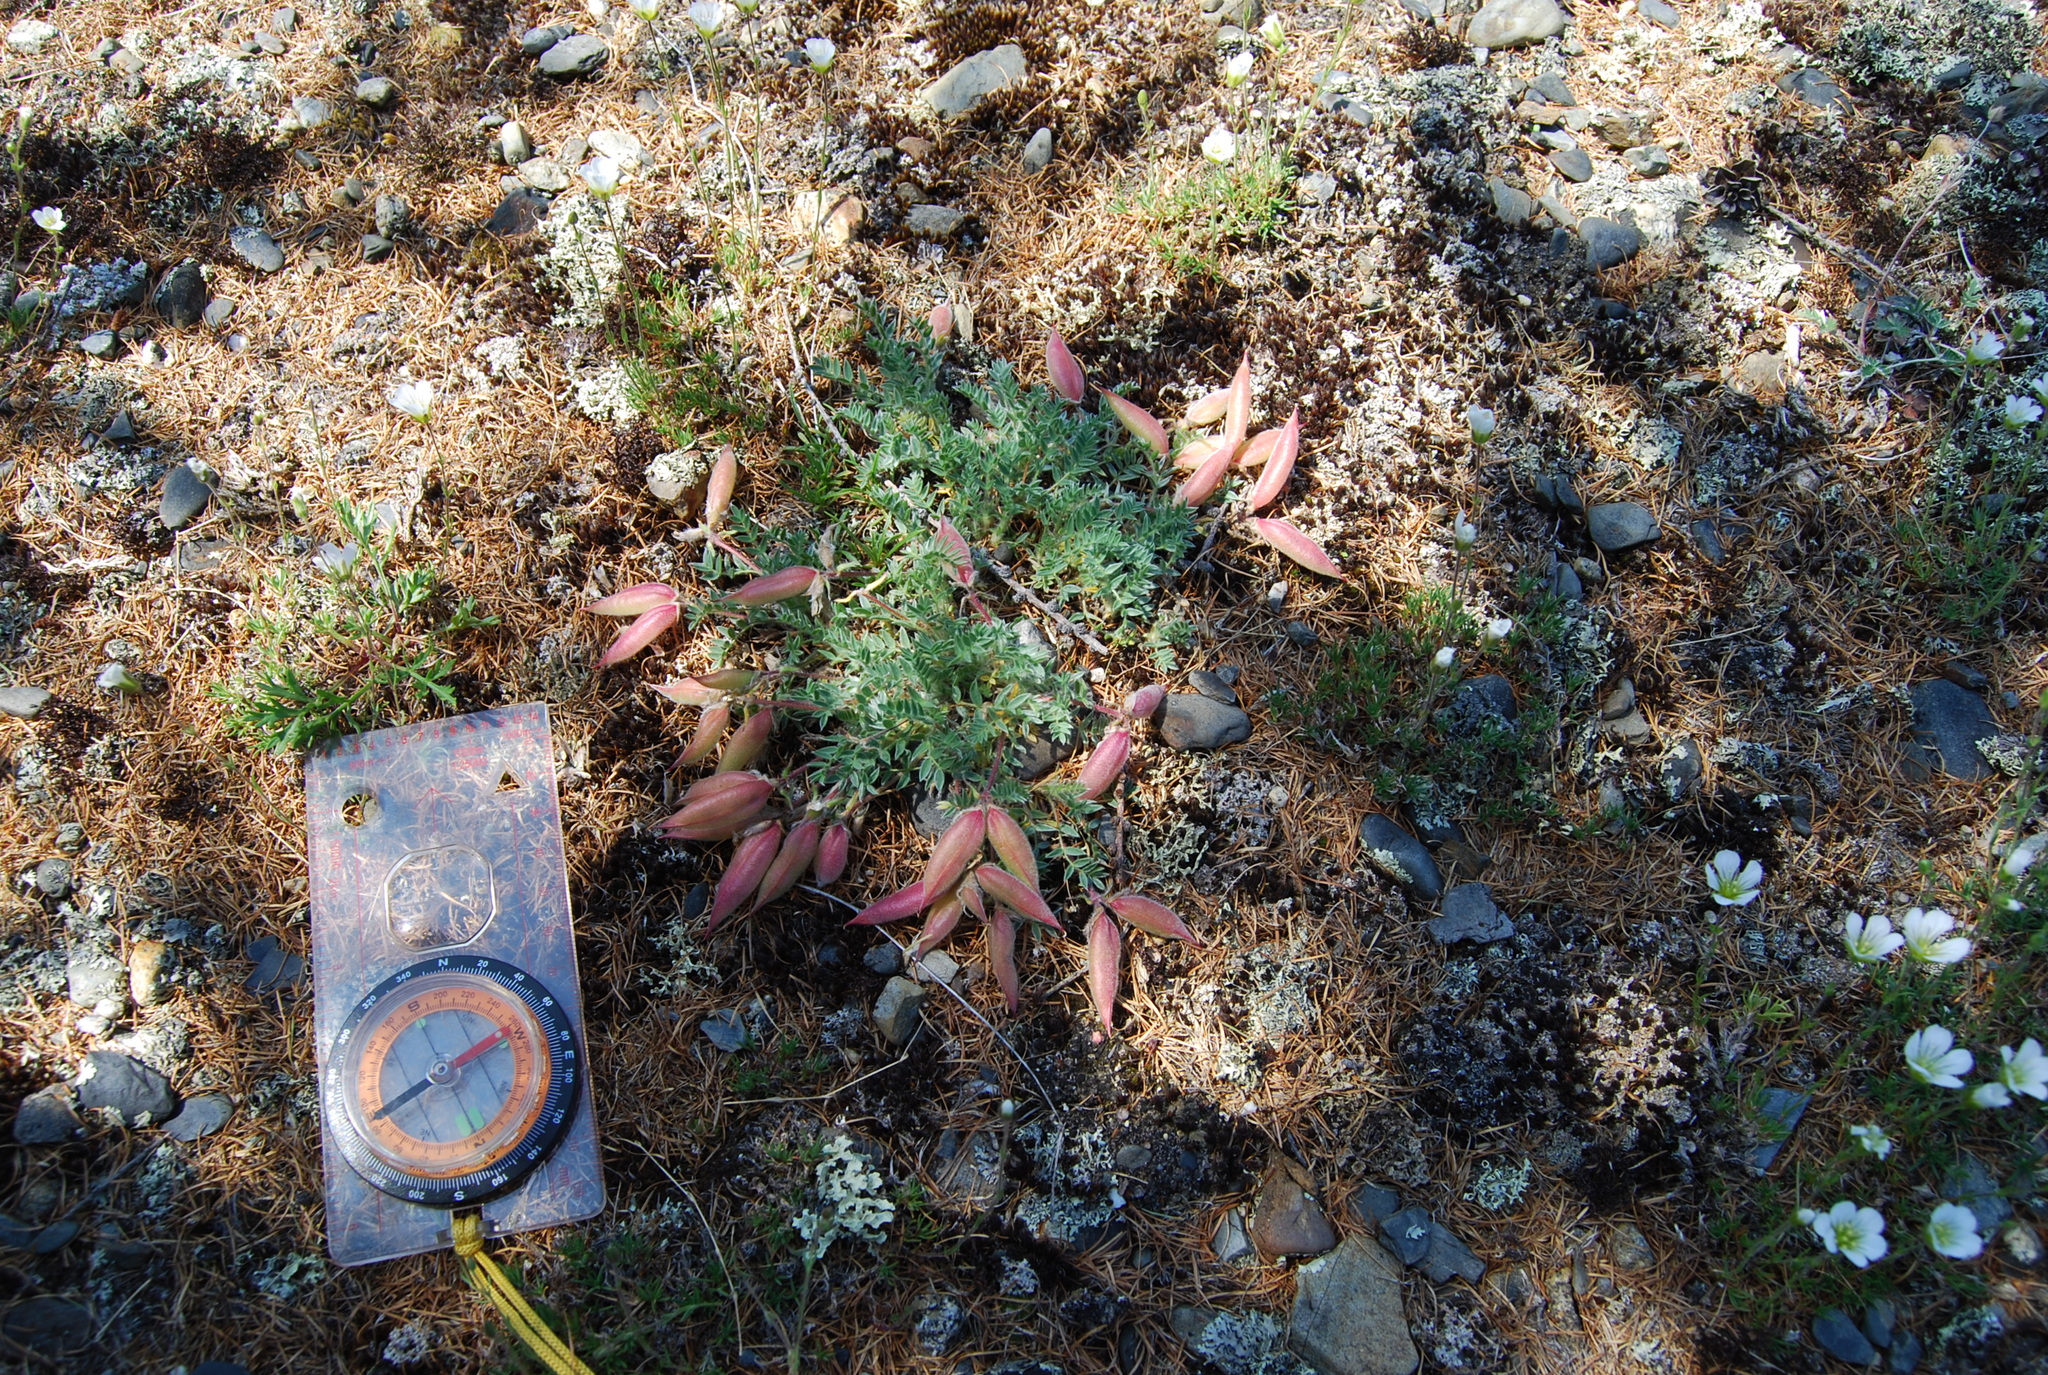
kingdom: Plantae
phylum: Tracheophyta
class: Magnoliopsida
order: Fabales
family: Fabaceae
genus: Oxytropis
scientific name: Oxytropis susumanica
